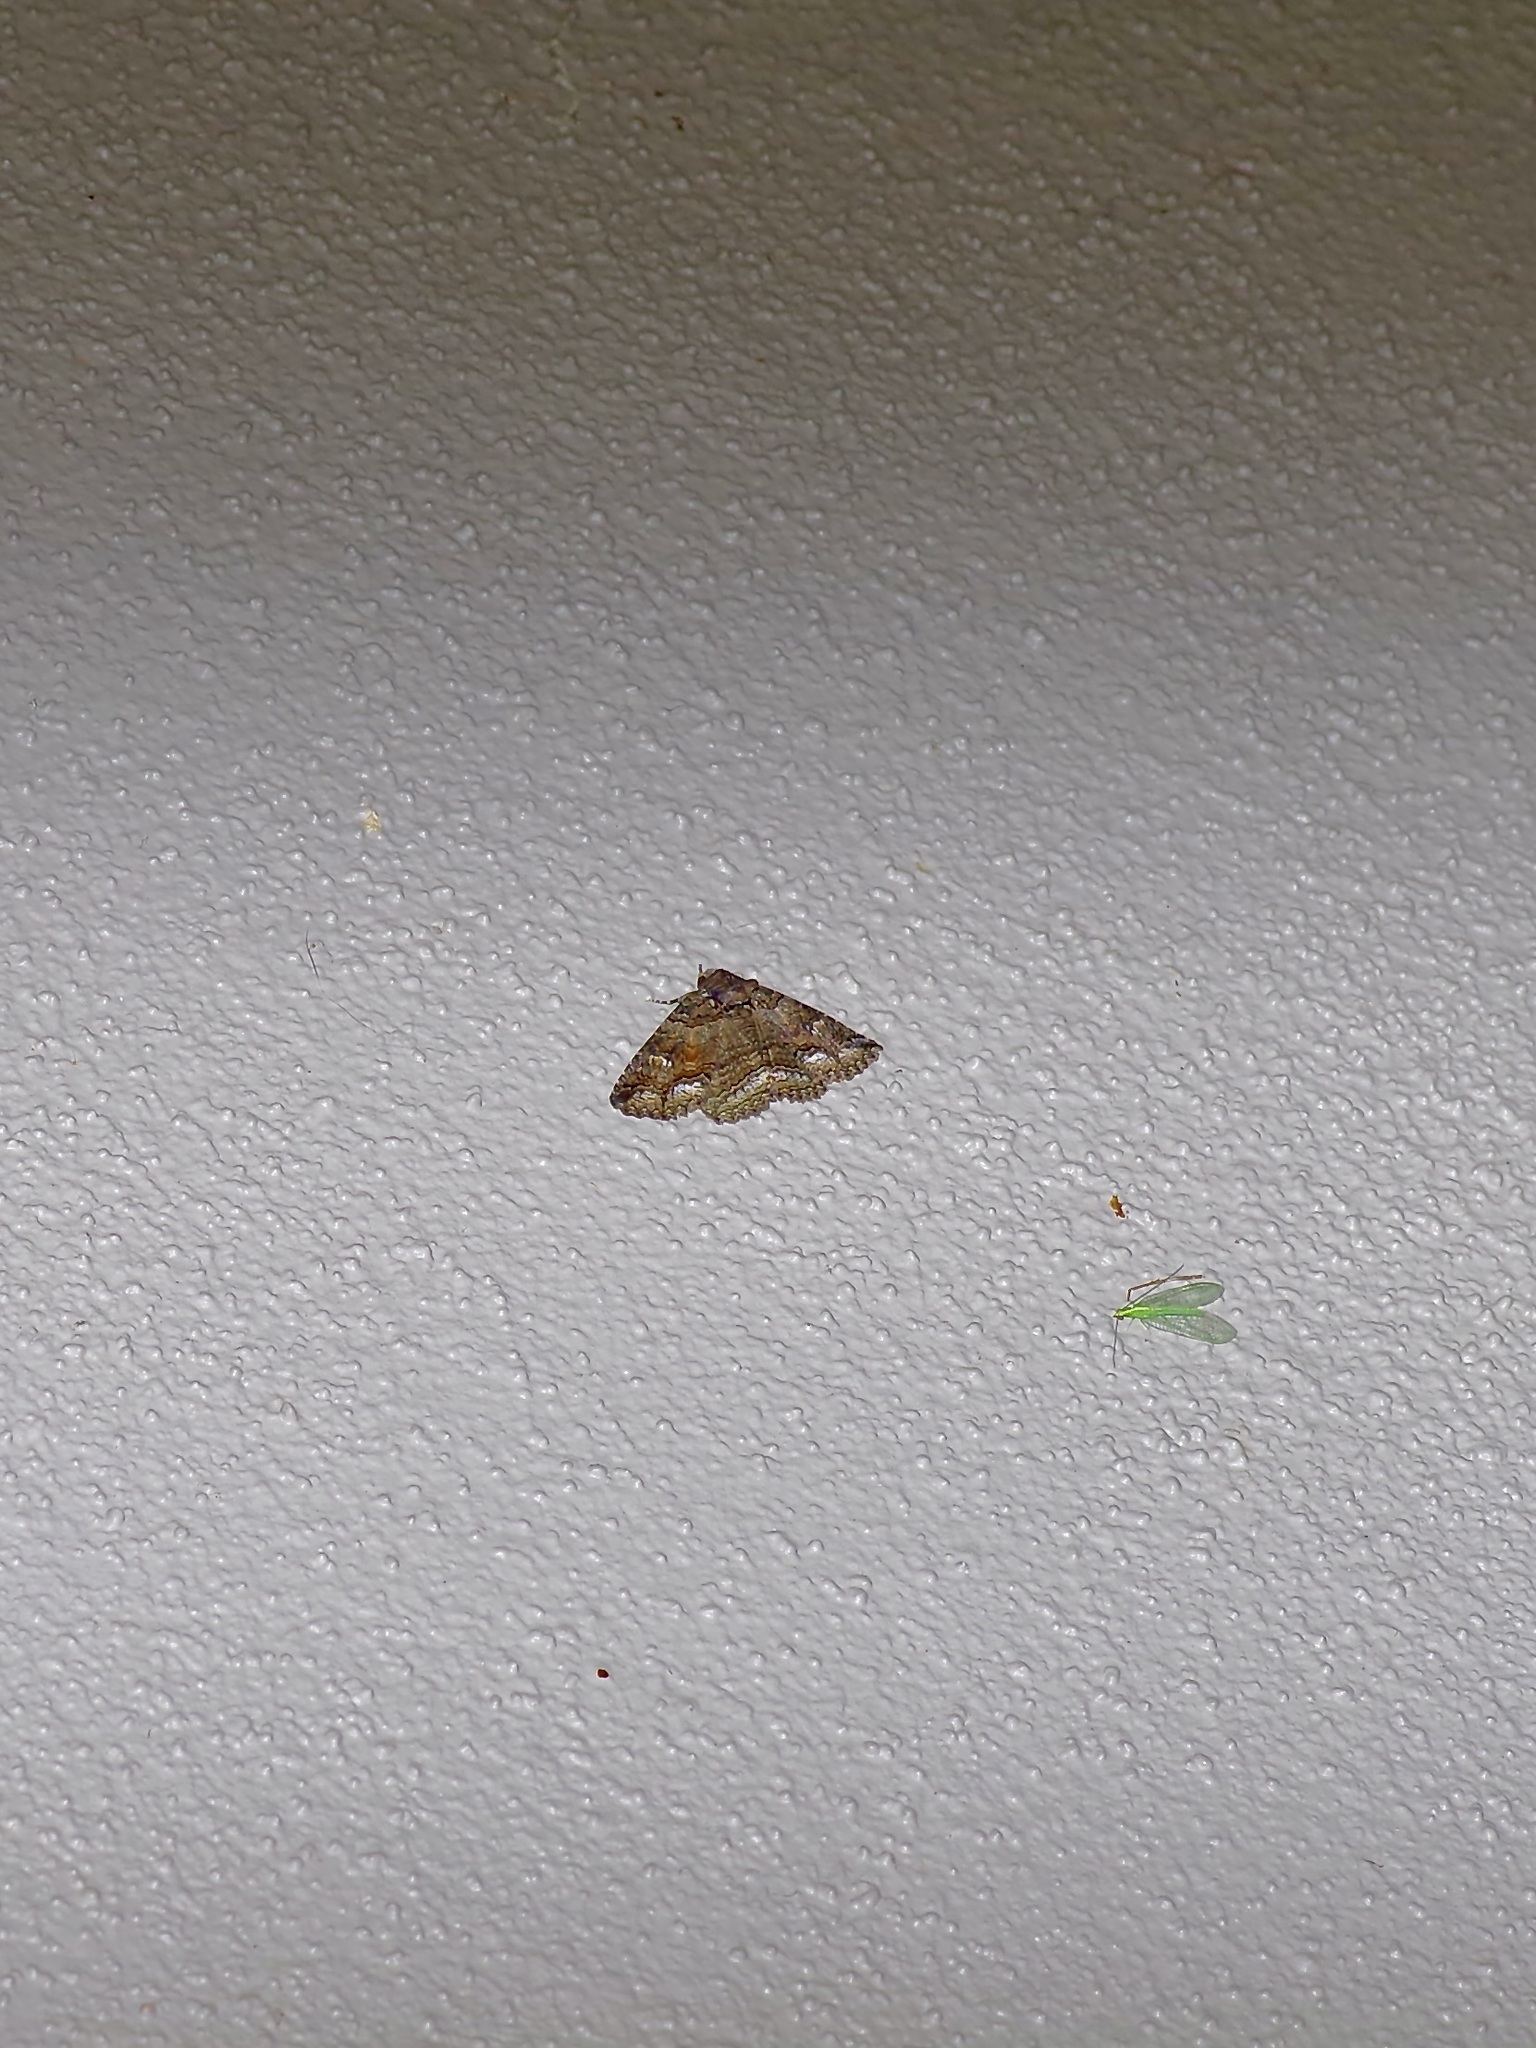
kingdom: Animalia
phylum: Arthropoda
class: Insecta
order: Lepidoptera
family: Erebidae
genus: Zale
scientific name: Zale lunata
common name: Lunate zale moth
